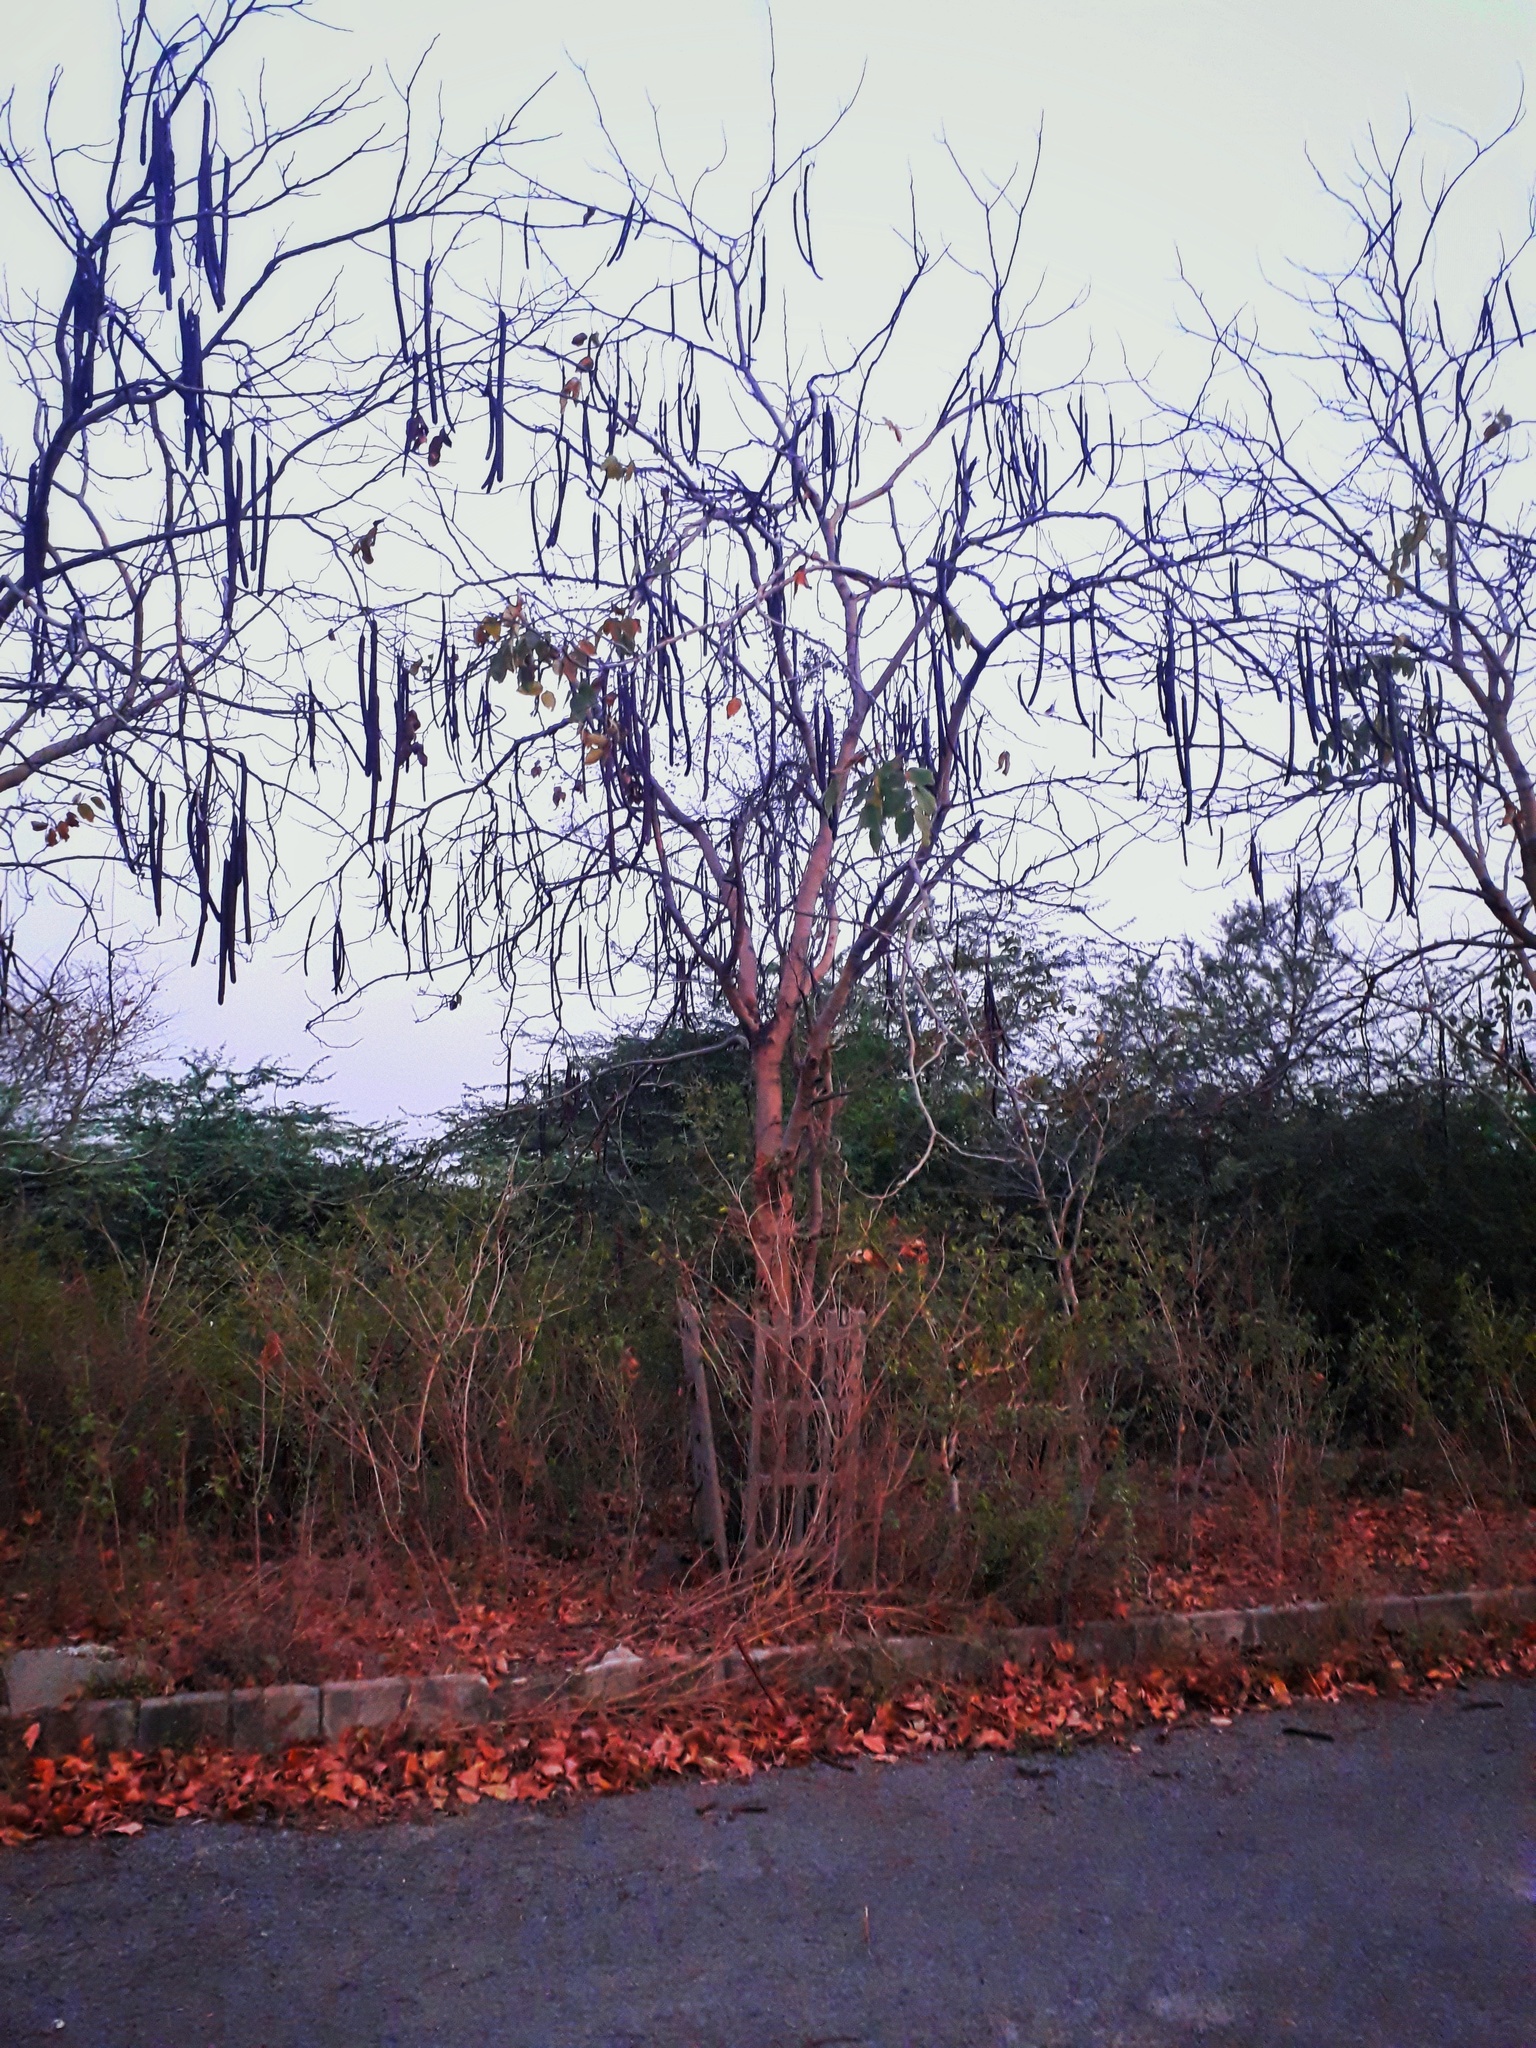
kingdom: Plantae
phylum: Tracheophyta
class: Magnoliopsida
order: Fabales
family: Fabaceae
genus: Cassia
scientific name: Cassia fistula
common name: Golden shower
